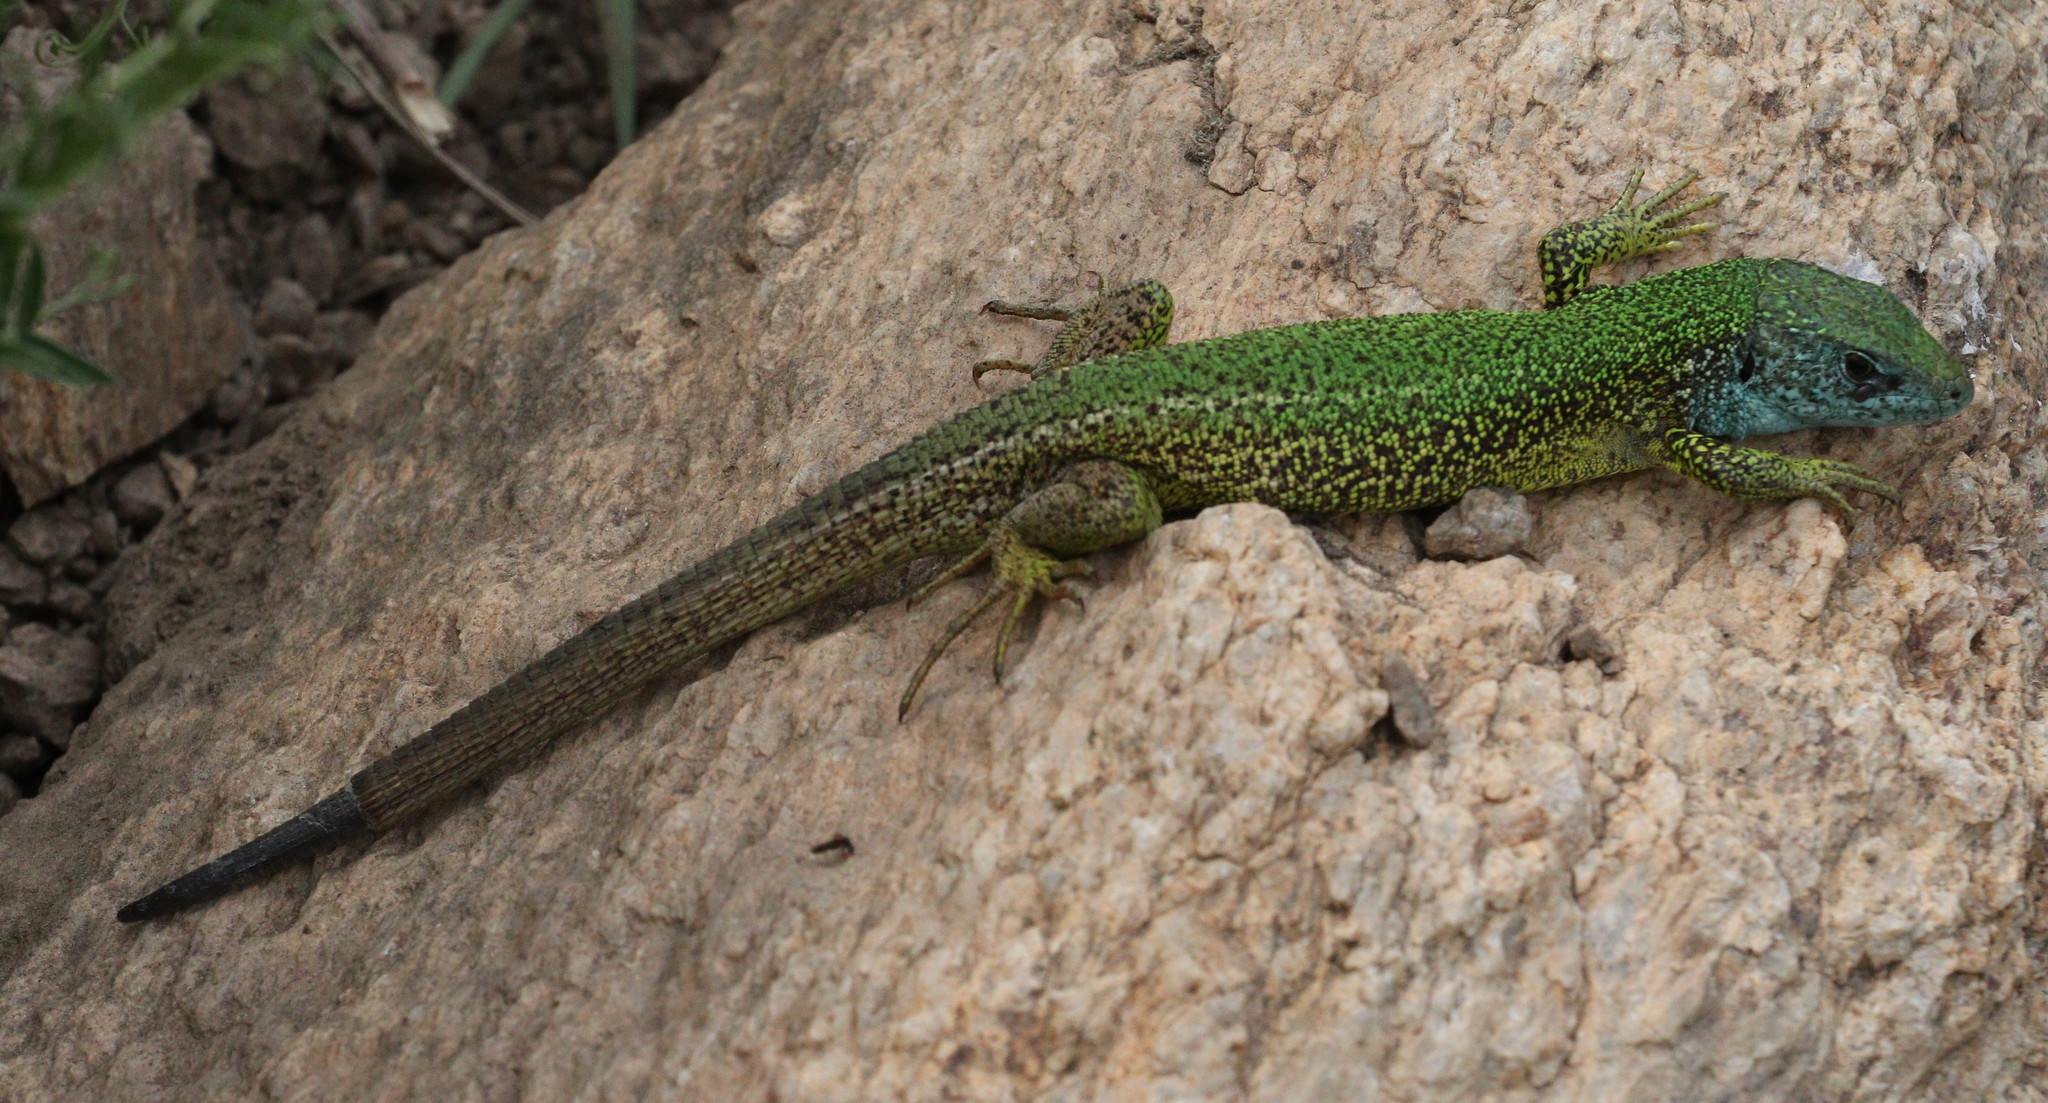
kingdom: Animalia
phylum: Chordata
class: Squamata
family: Lacertidae
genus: Lacerta
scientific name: Lacerta viridis
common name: European green lizard
